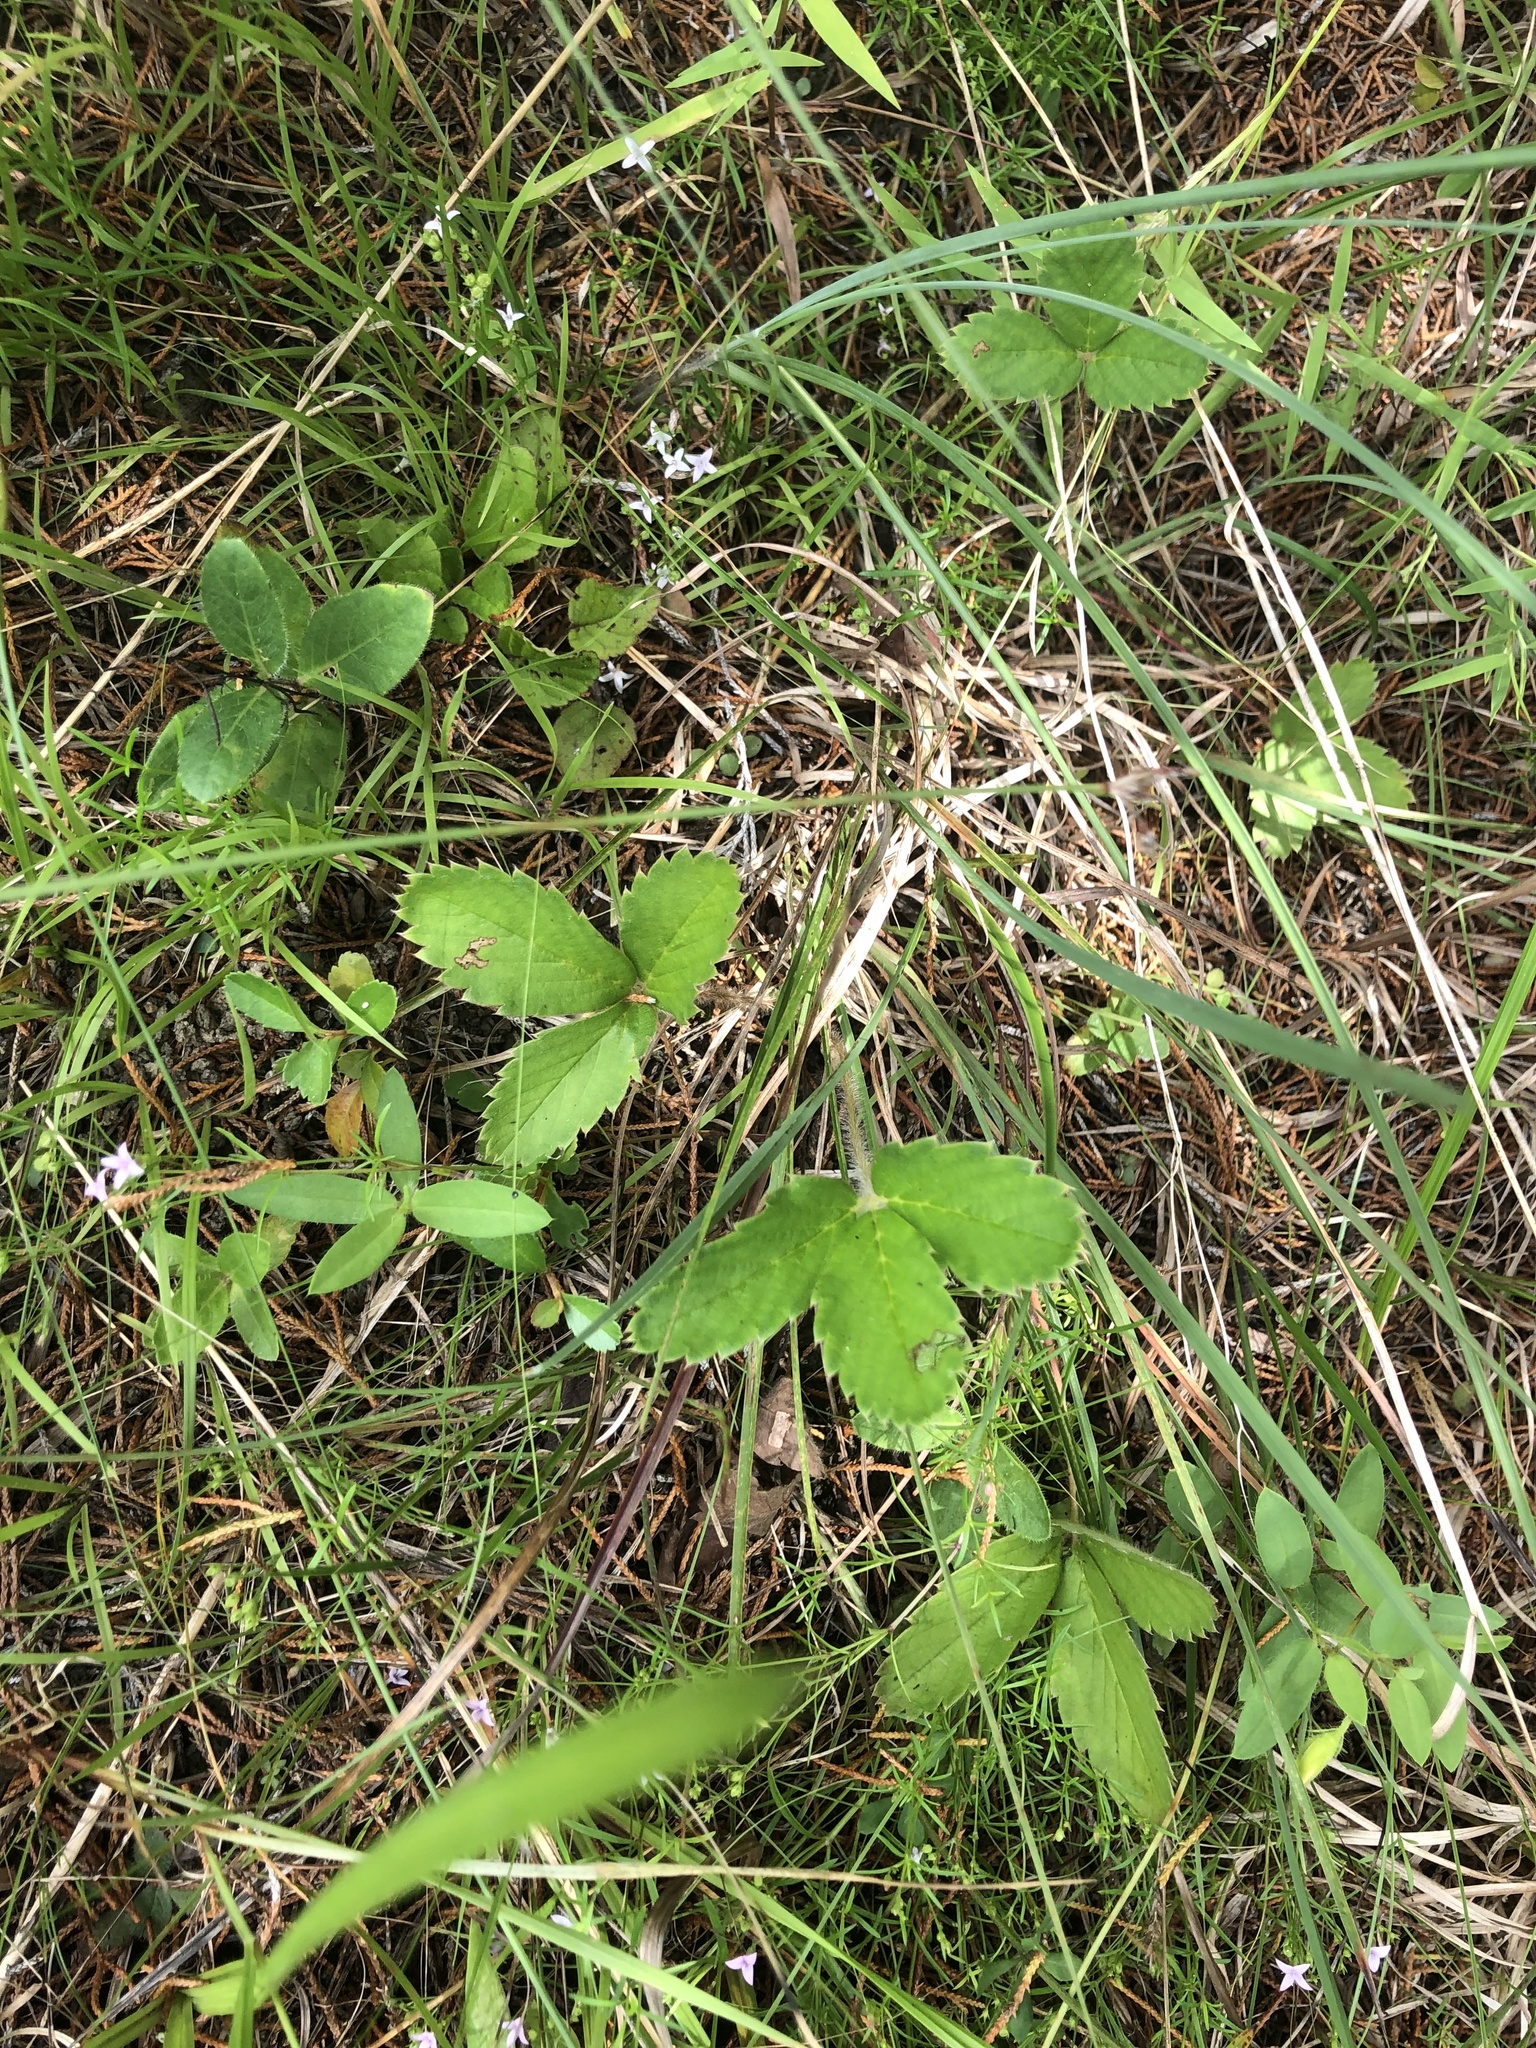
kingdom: Plantae
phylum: Tracheophyta
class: Magnoliopsida
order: Rosales
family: Rosaceae
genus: Fragaria
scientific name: Fragaria virginiana
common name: Thickleaved wild strawberry
